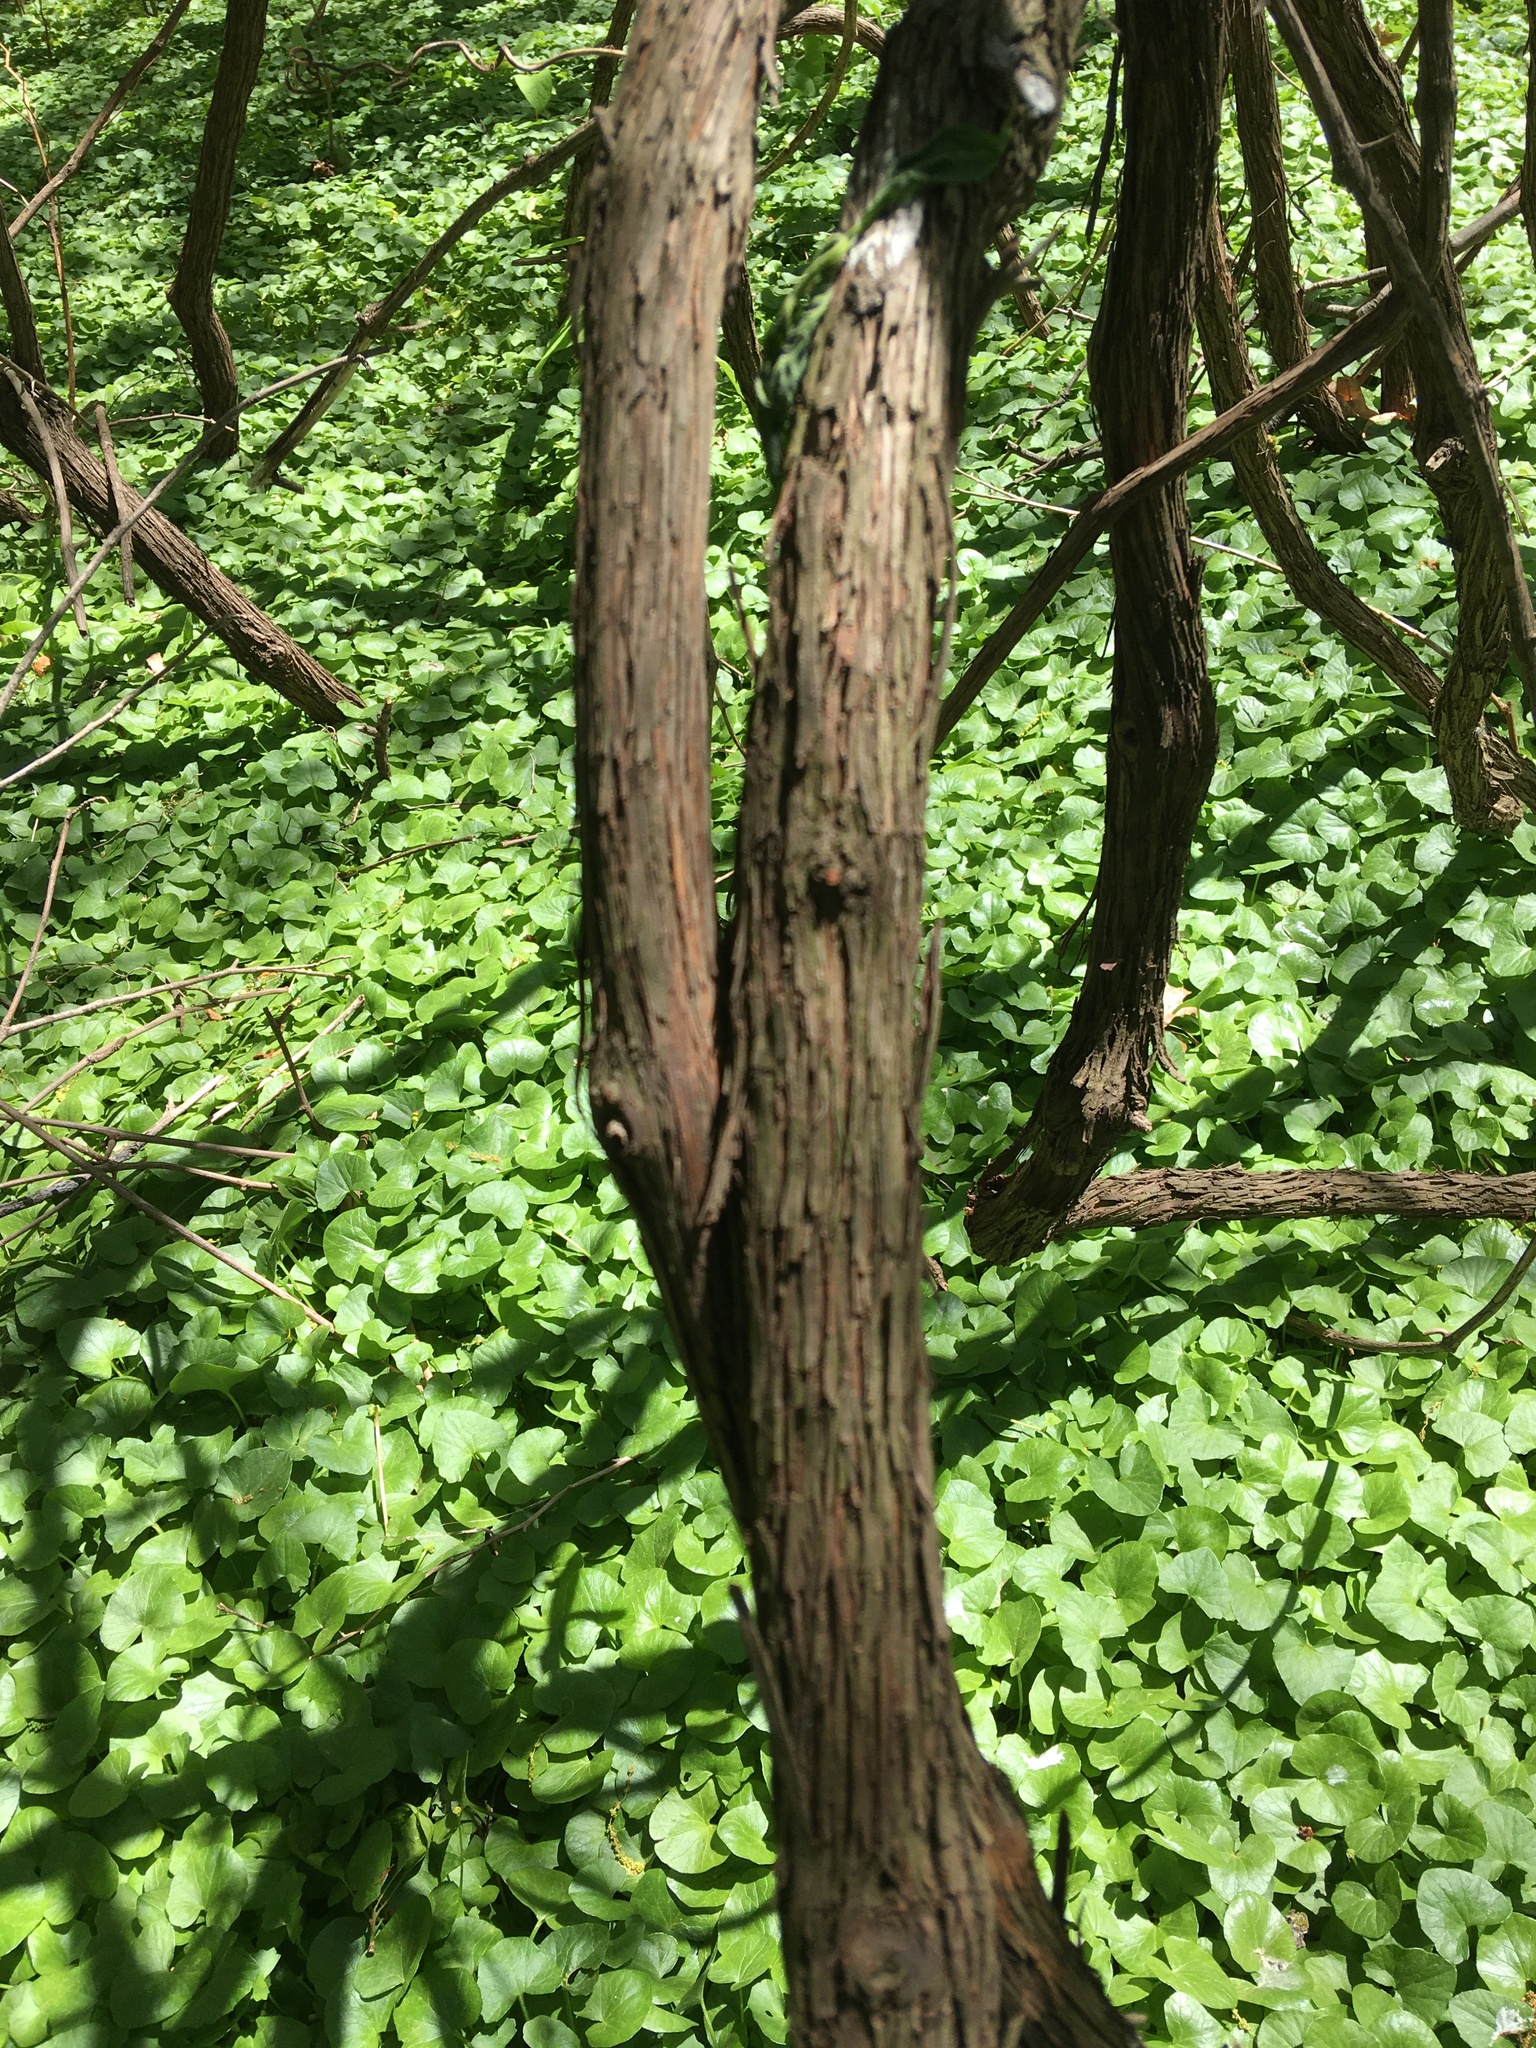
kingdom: Plantae
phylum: Tracheophyta
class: Magnoliopsida
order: Vitales
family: Vitaceae
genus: Vitis
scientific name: Vitis
